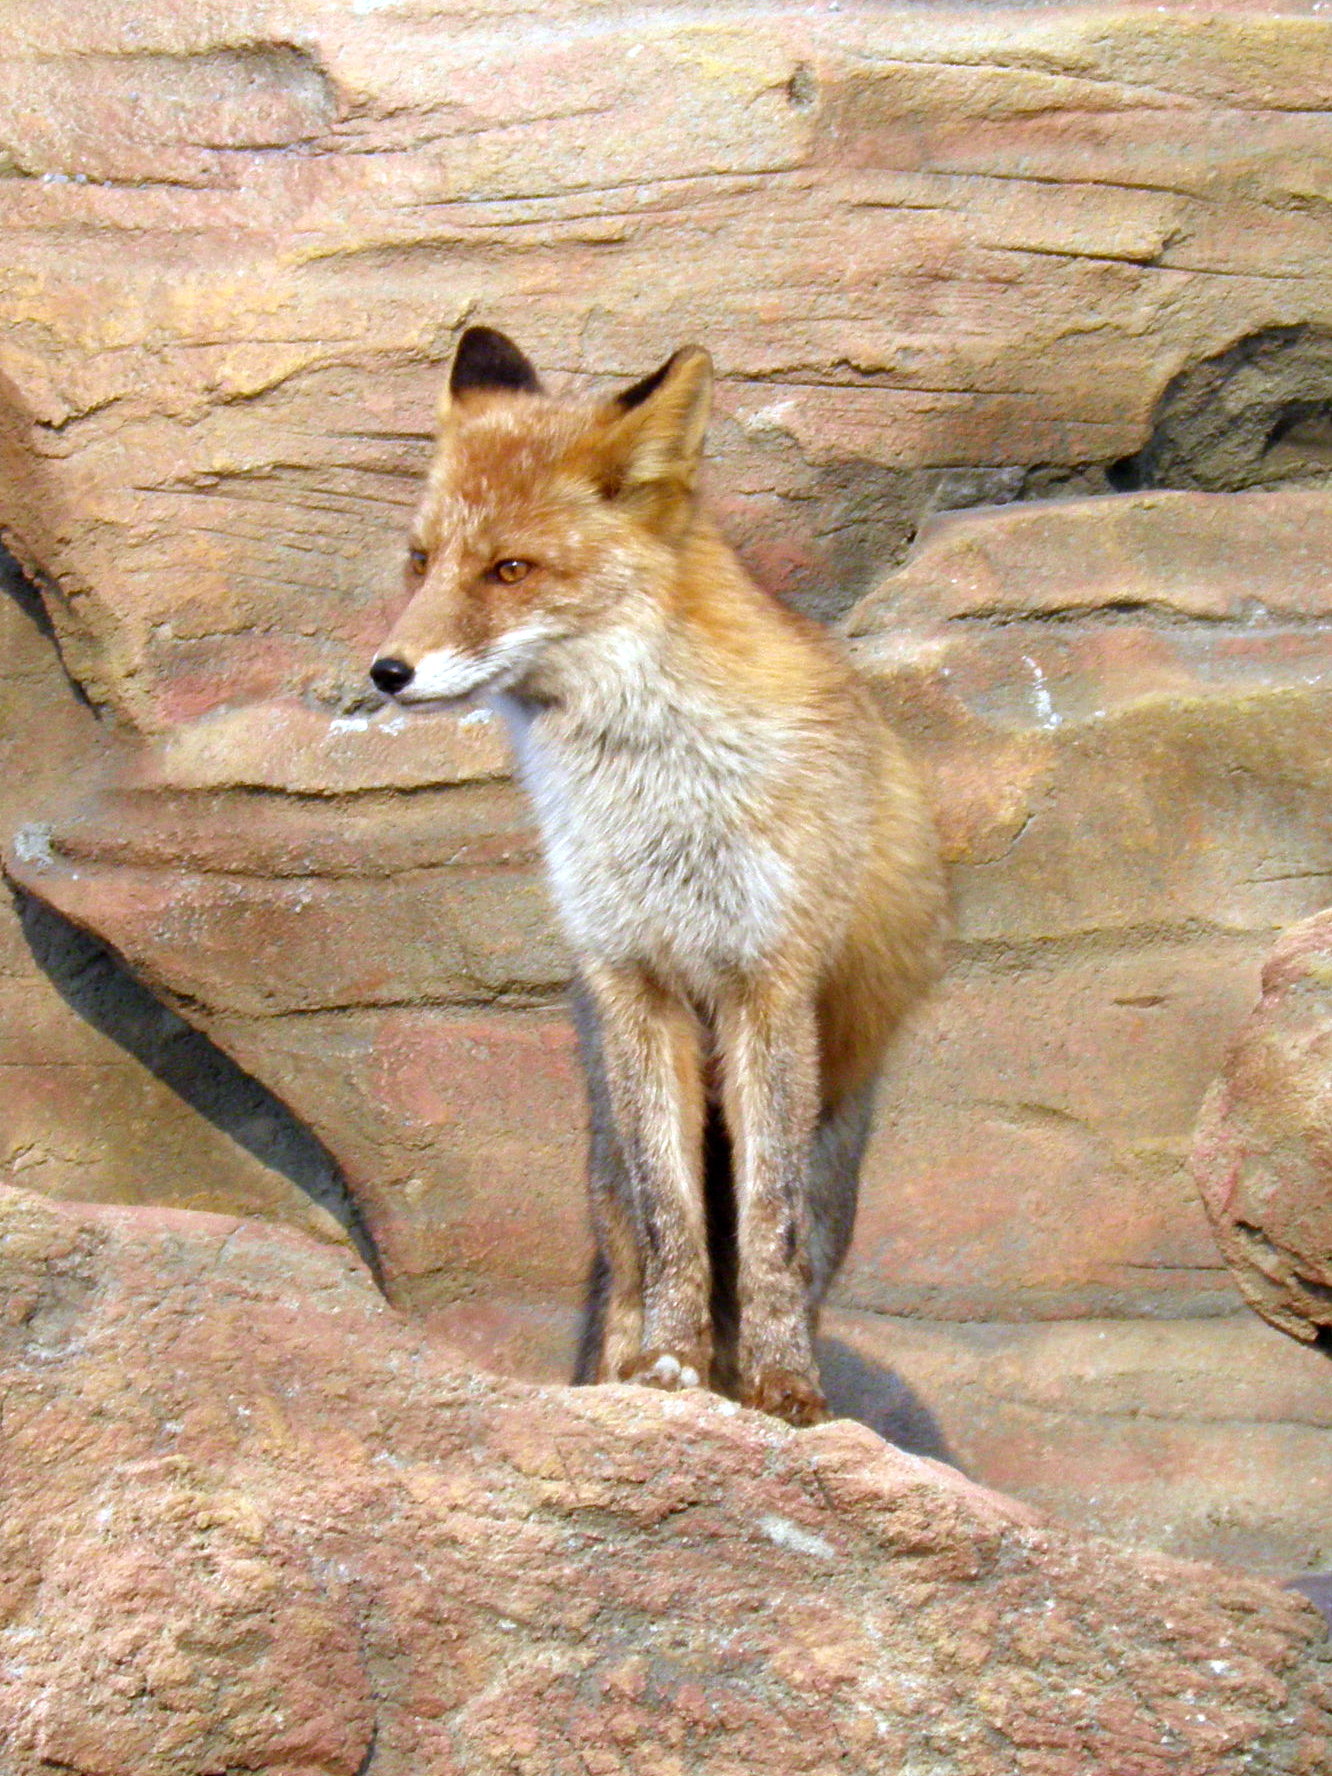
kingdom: Animalia
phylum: Chordata
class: Mammalia
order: Carnivora
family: Canidae
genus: Vulpes
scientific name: Vulpes vulpes
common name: Red fox
